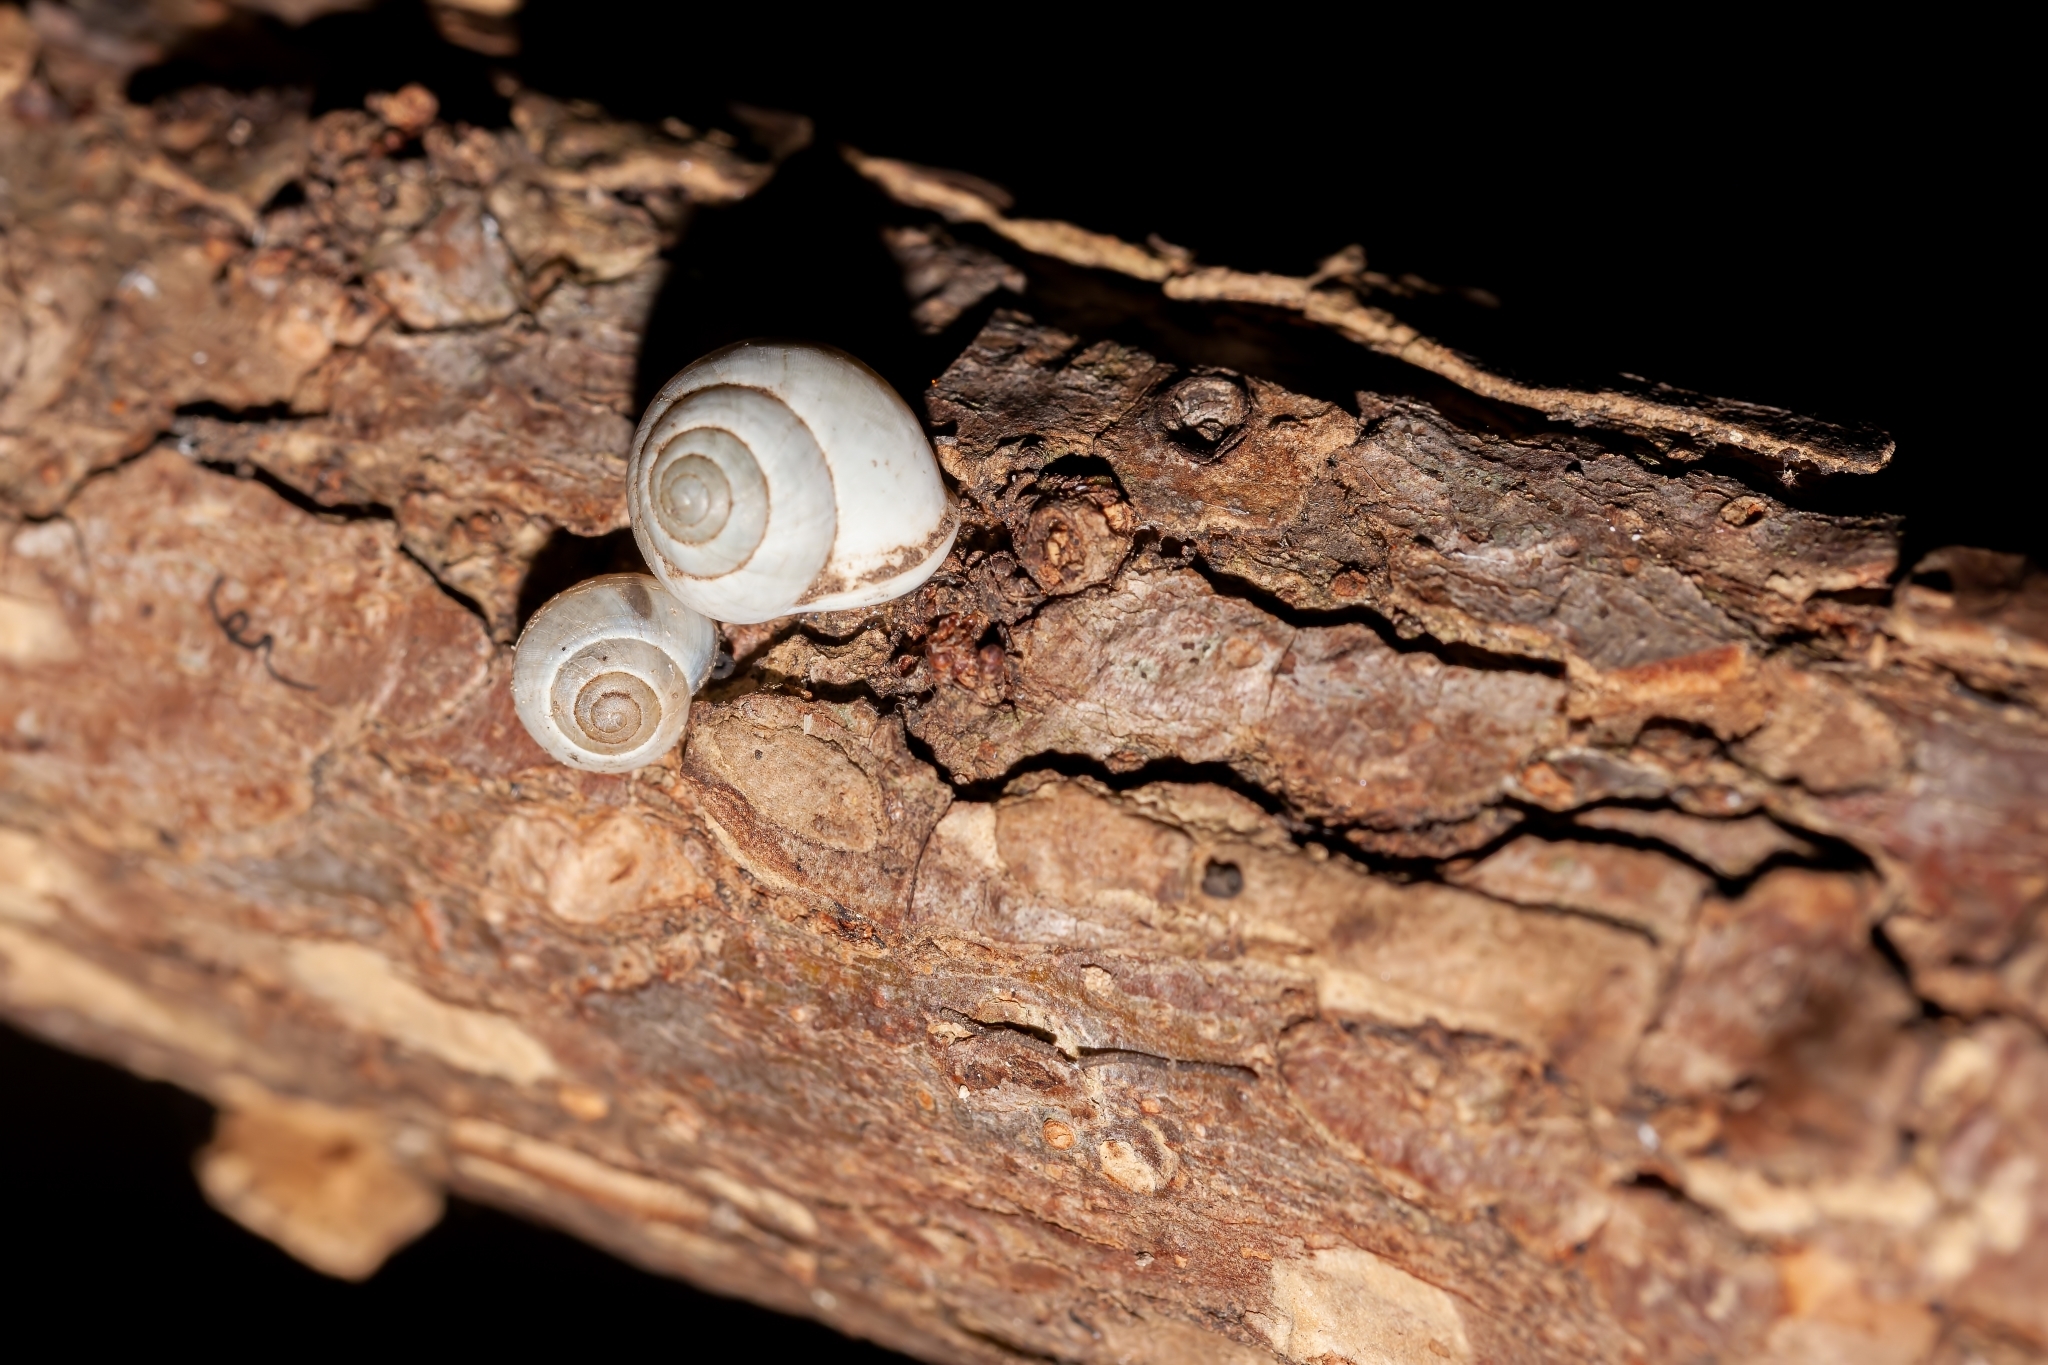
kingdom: Animalia
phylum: Mollusca
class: Gastropoda
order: Cycloneritida
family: Helicinidae
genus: Helicina
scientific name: Helicina orbiculata
